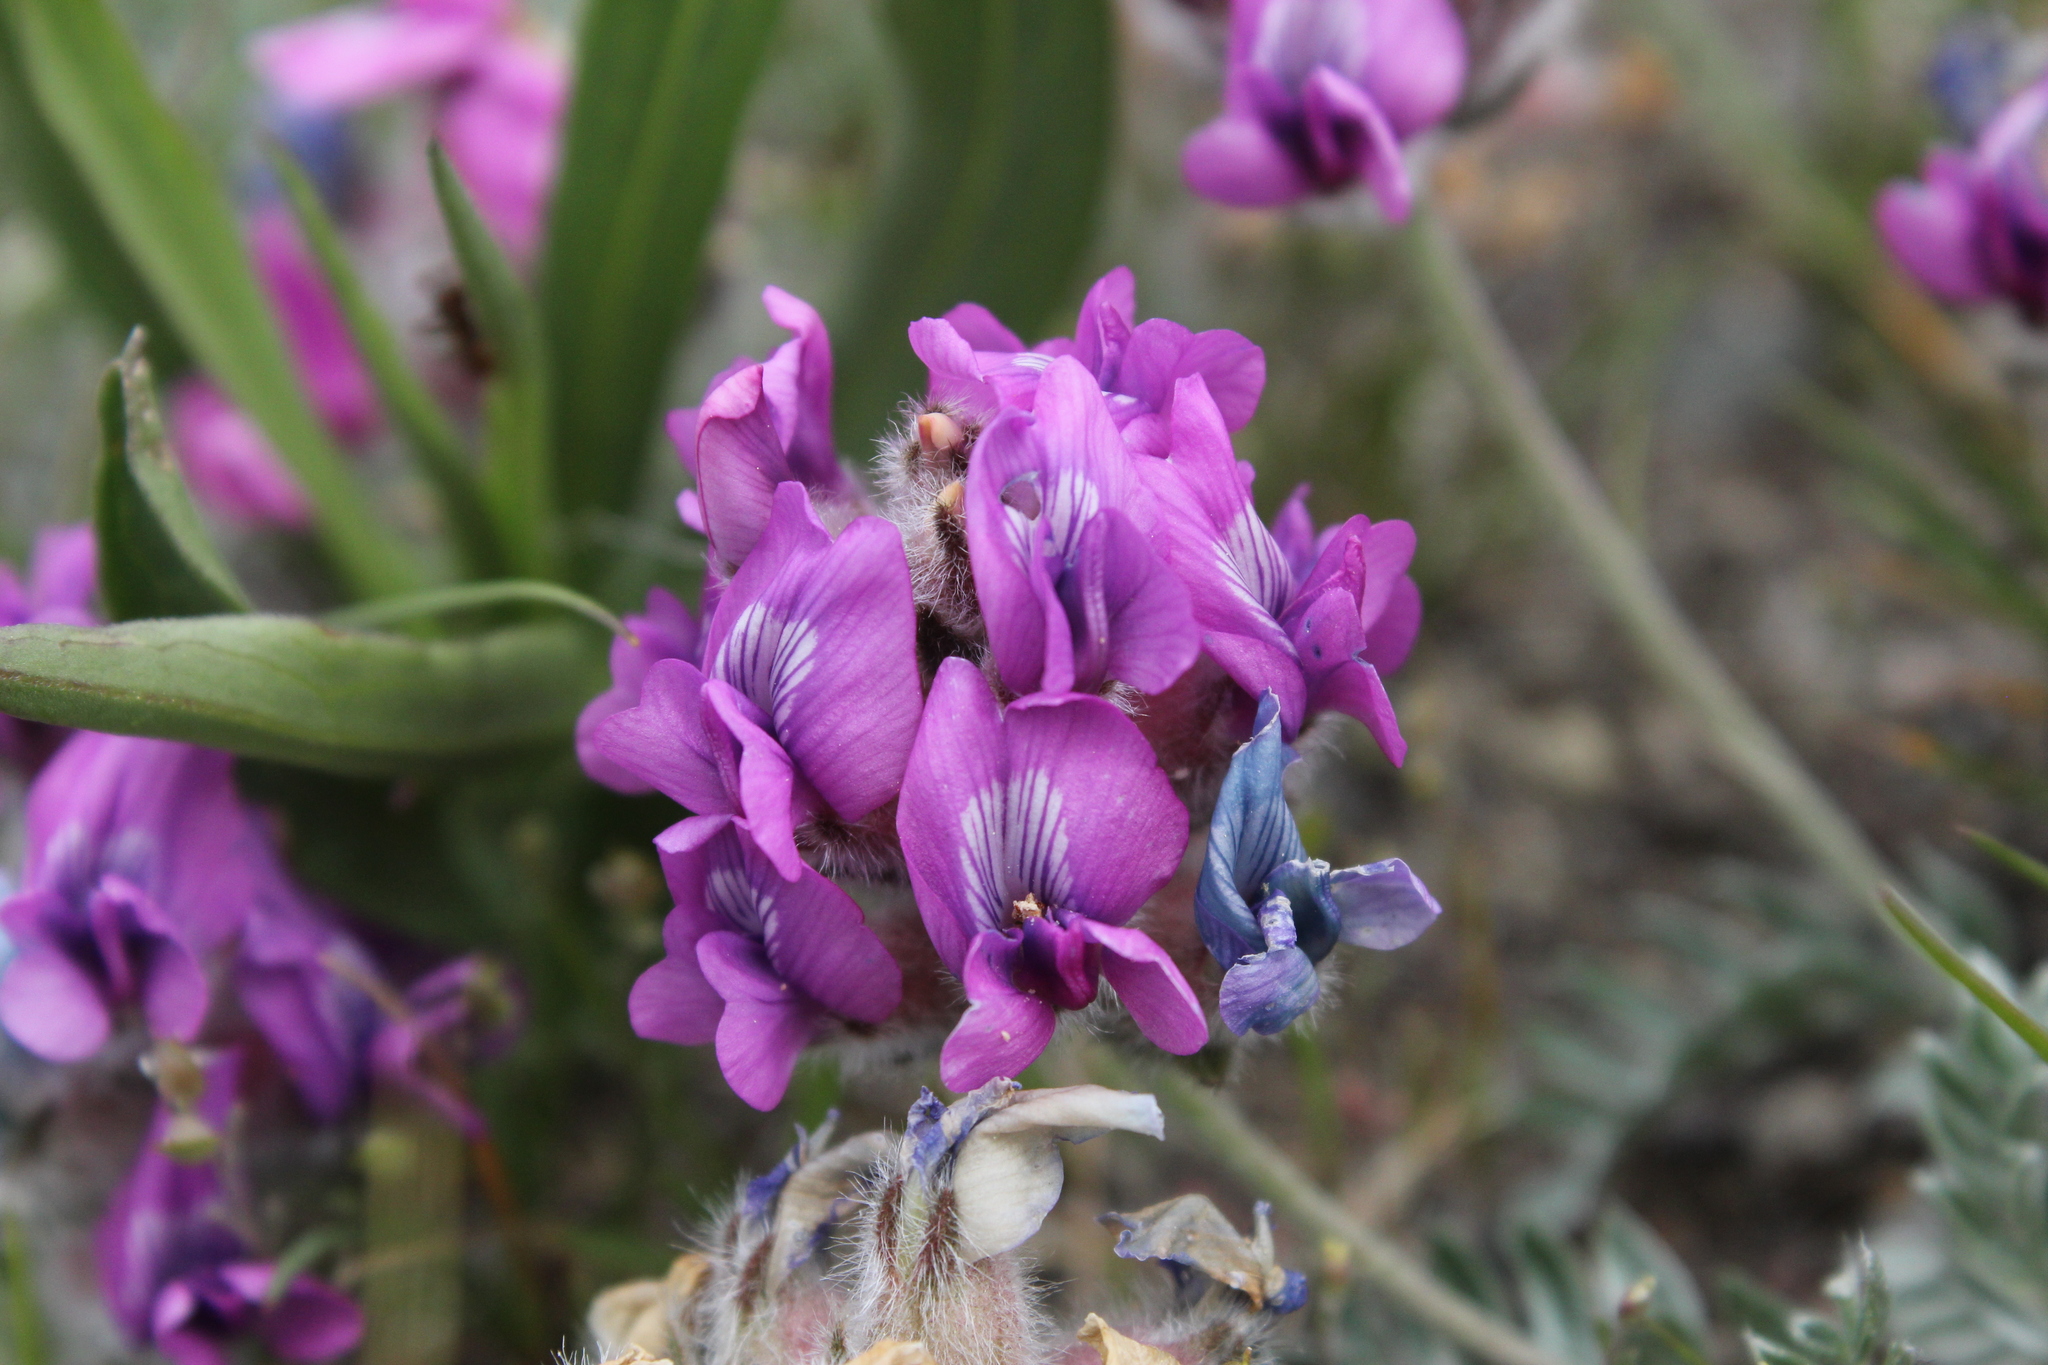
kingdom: Plantae
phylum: Tracheophyta
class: Magnoliopsida
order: Fabales
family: Fabaceae
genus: Oxytropis
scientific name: Oxytropis lagopus
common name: Hare's-foot locoweed
